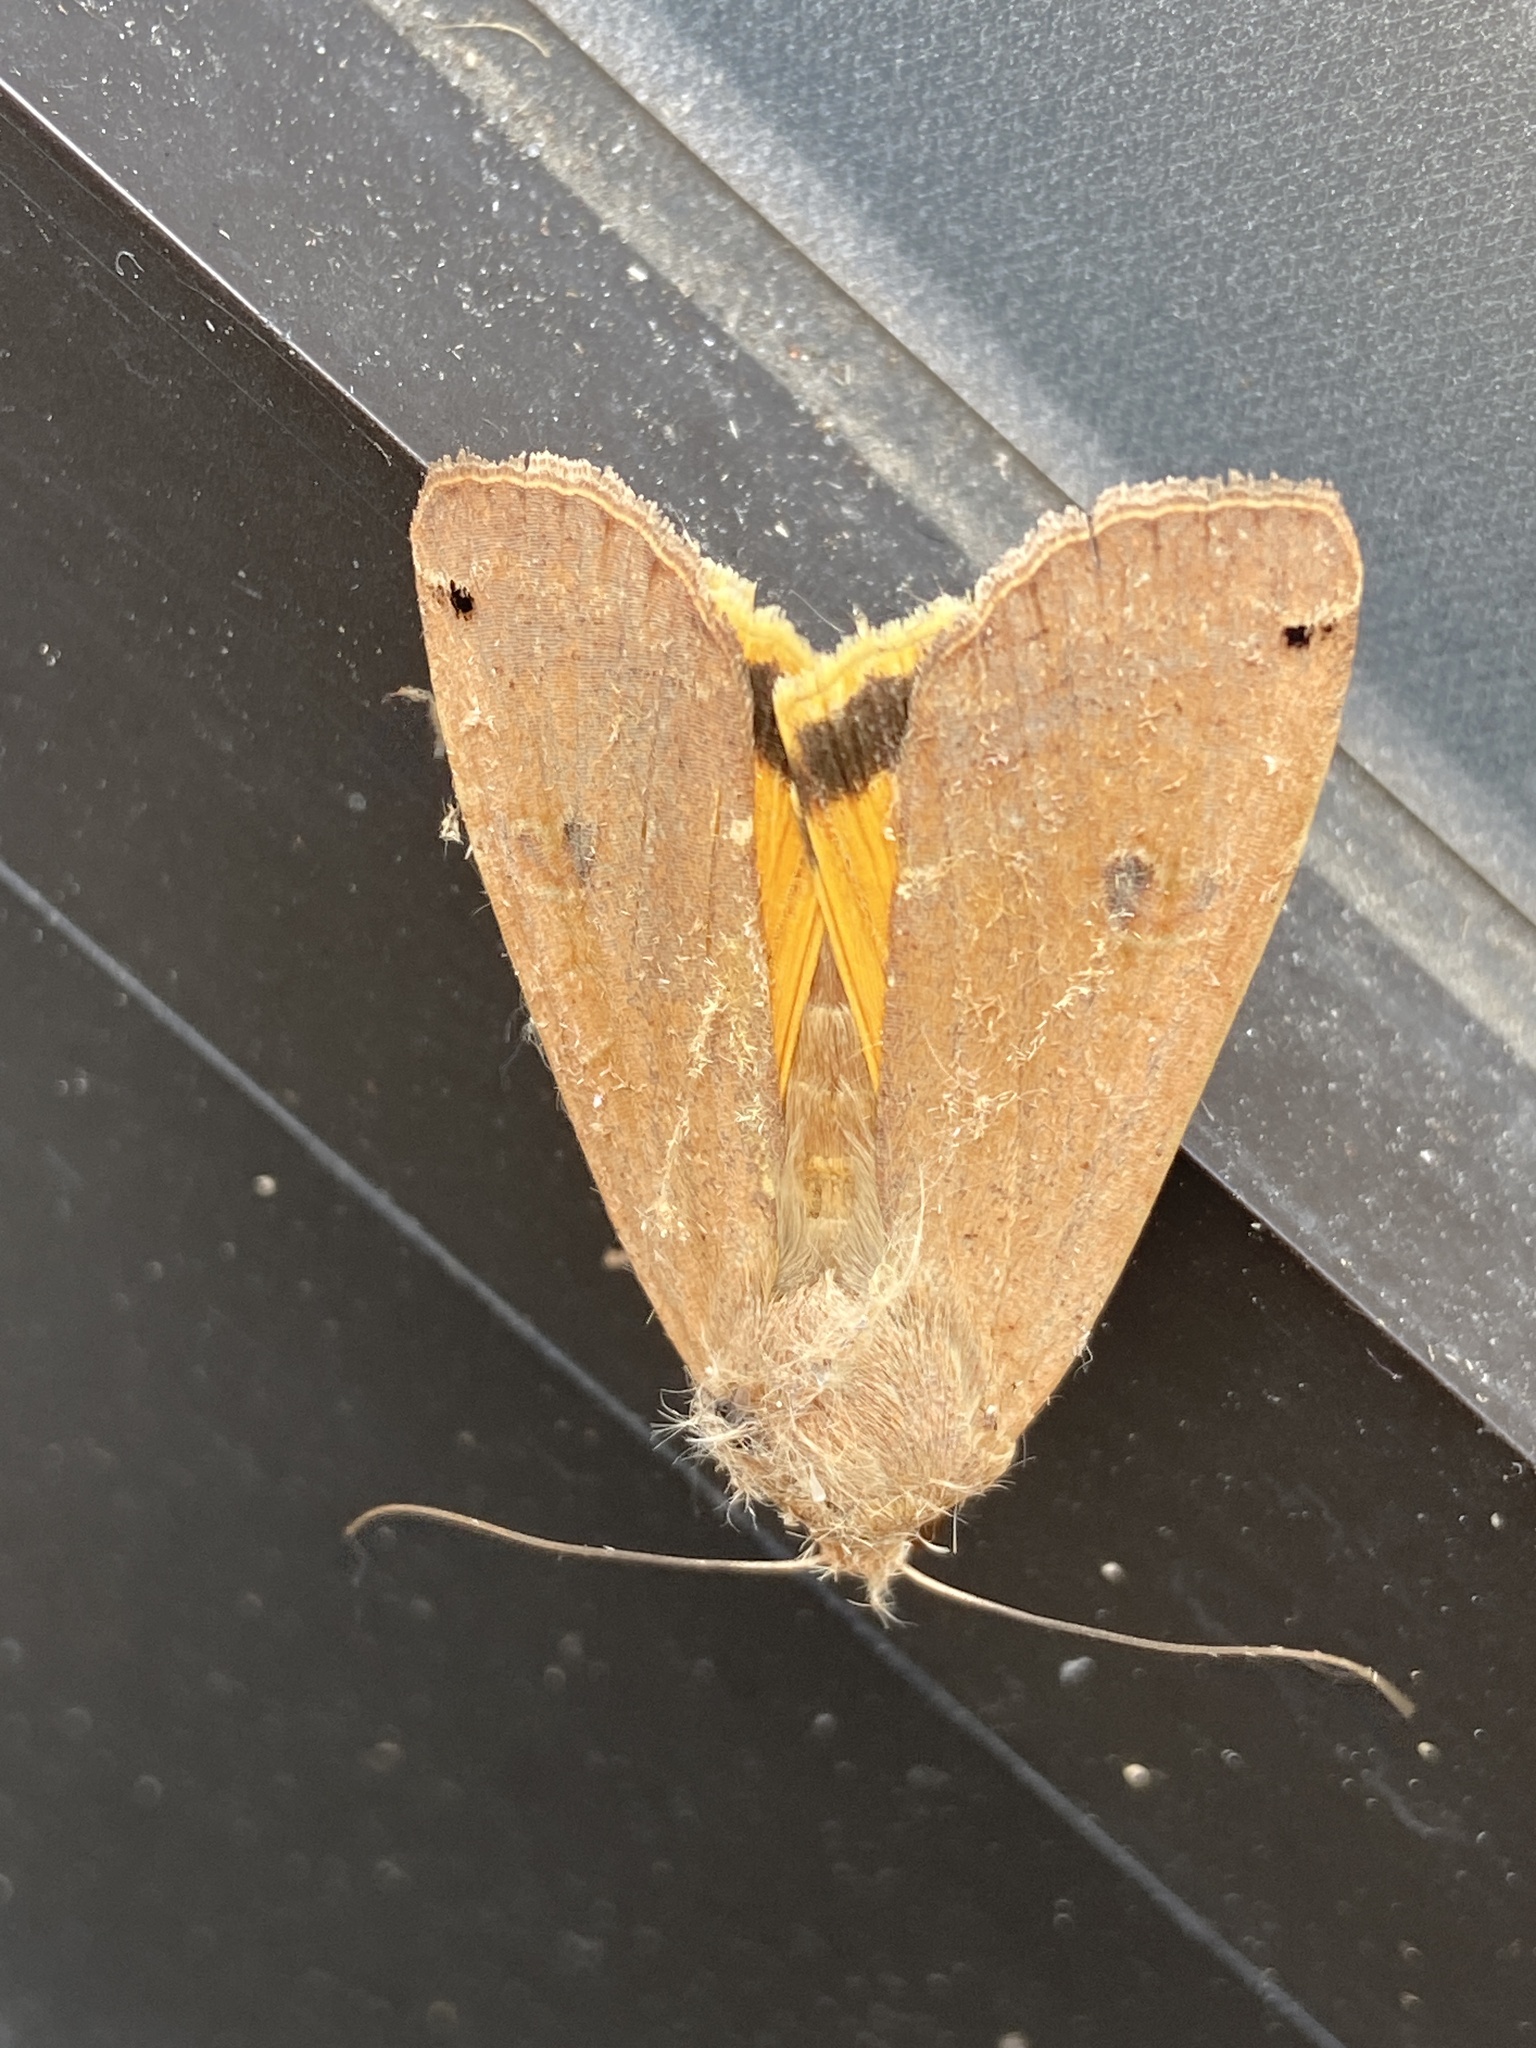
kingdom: Animalia
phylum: Arthropoda
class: Insecta
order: Lepidoptera
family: Noctuidae
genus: Noctua
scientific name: Noctua pronuba
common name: Large yellow underwing
